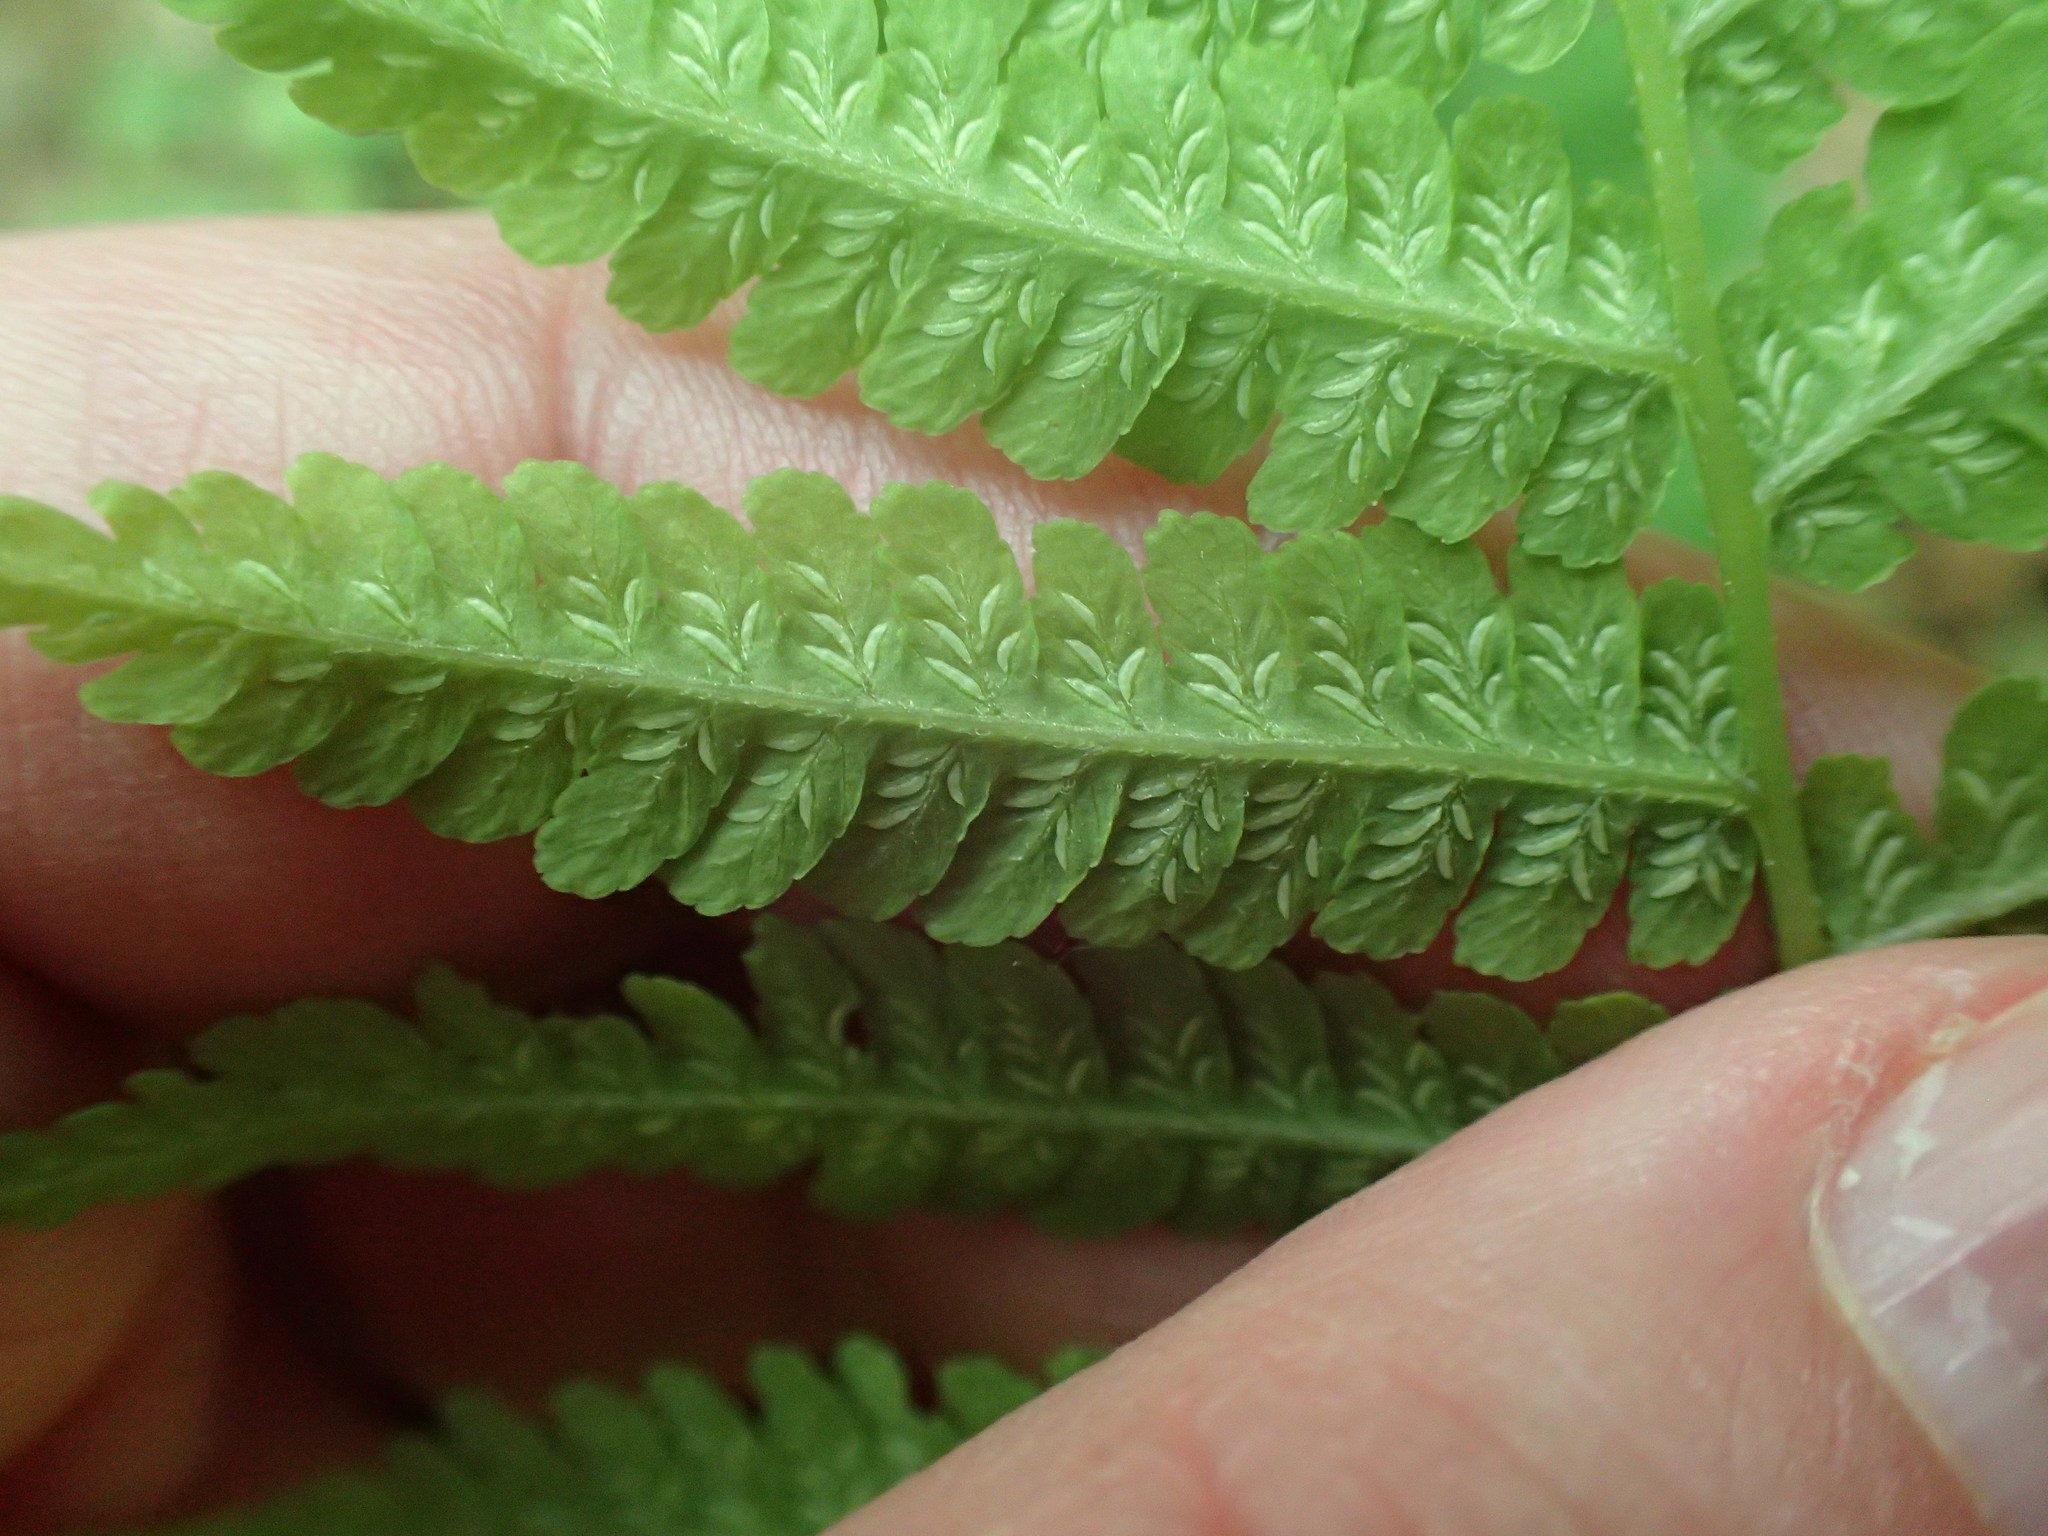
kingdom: Plantae
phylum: Tracheophyta
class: Polypodiopsida
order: Polypodiales
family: Athyriaceae
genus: Deparia
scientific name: Deparia acrostichoides
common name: Silver false spleenwort
